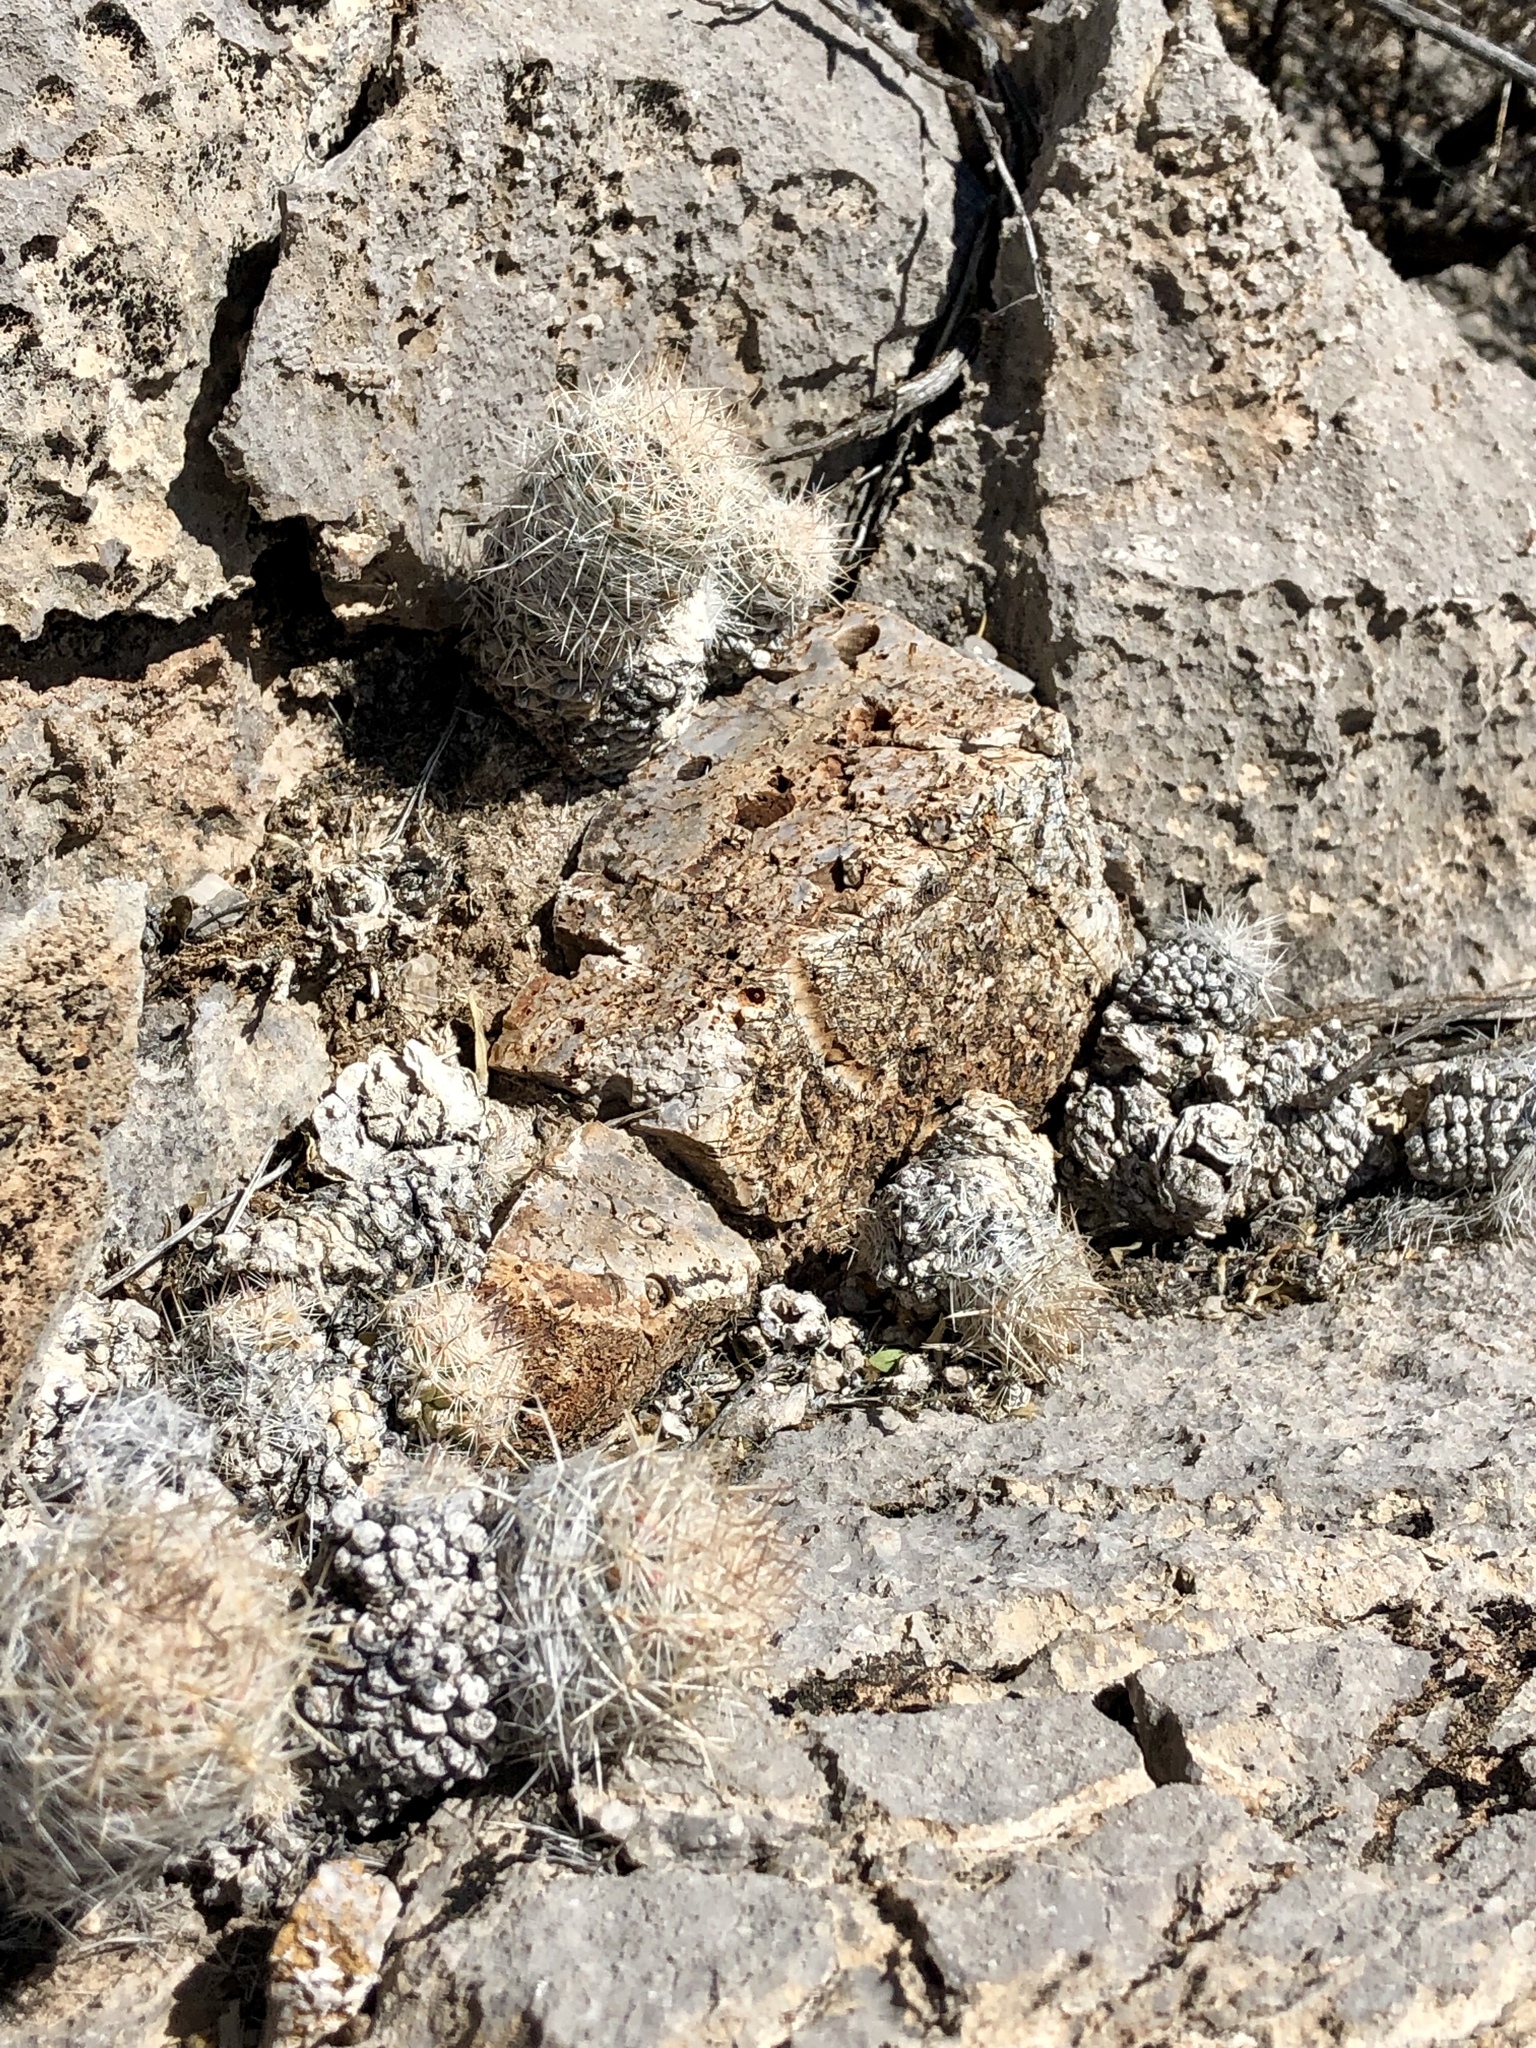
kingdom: Plantae
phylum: Tracheophyta
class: Magnoliopsida
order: Caryophyllales
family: Cactaceae
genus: Pelecyphora
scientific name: Pelecyphora tuberculosa
